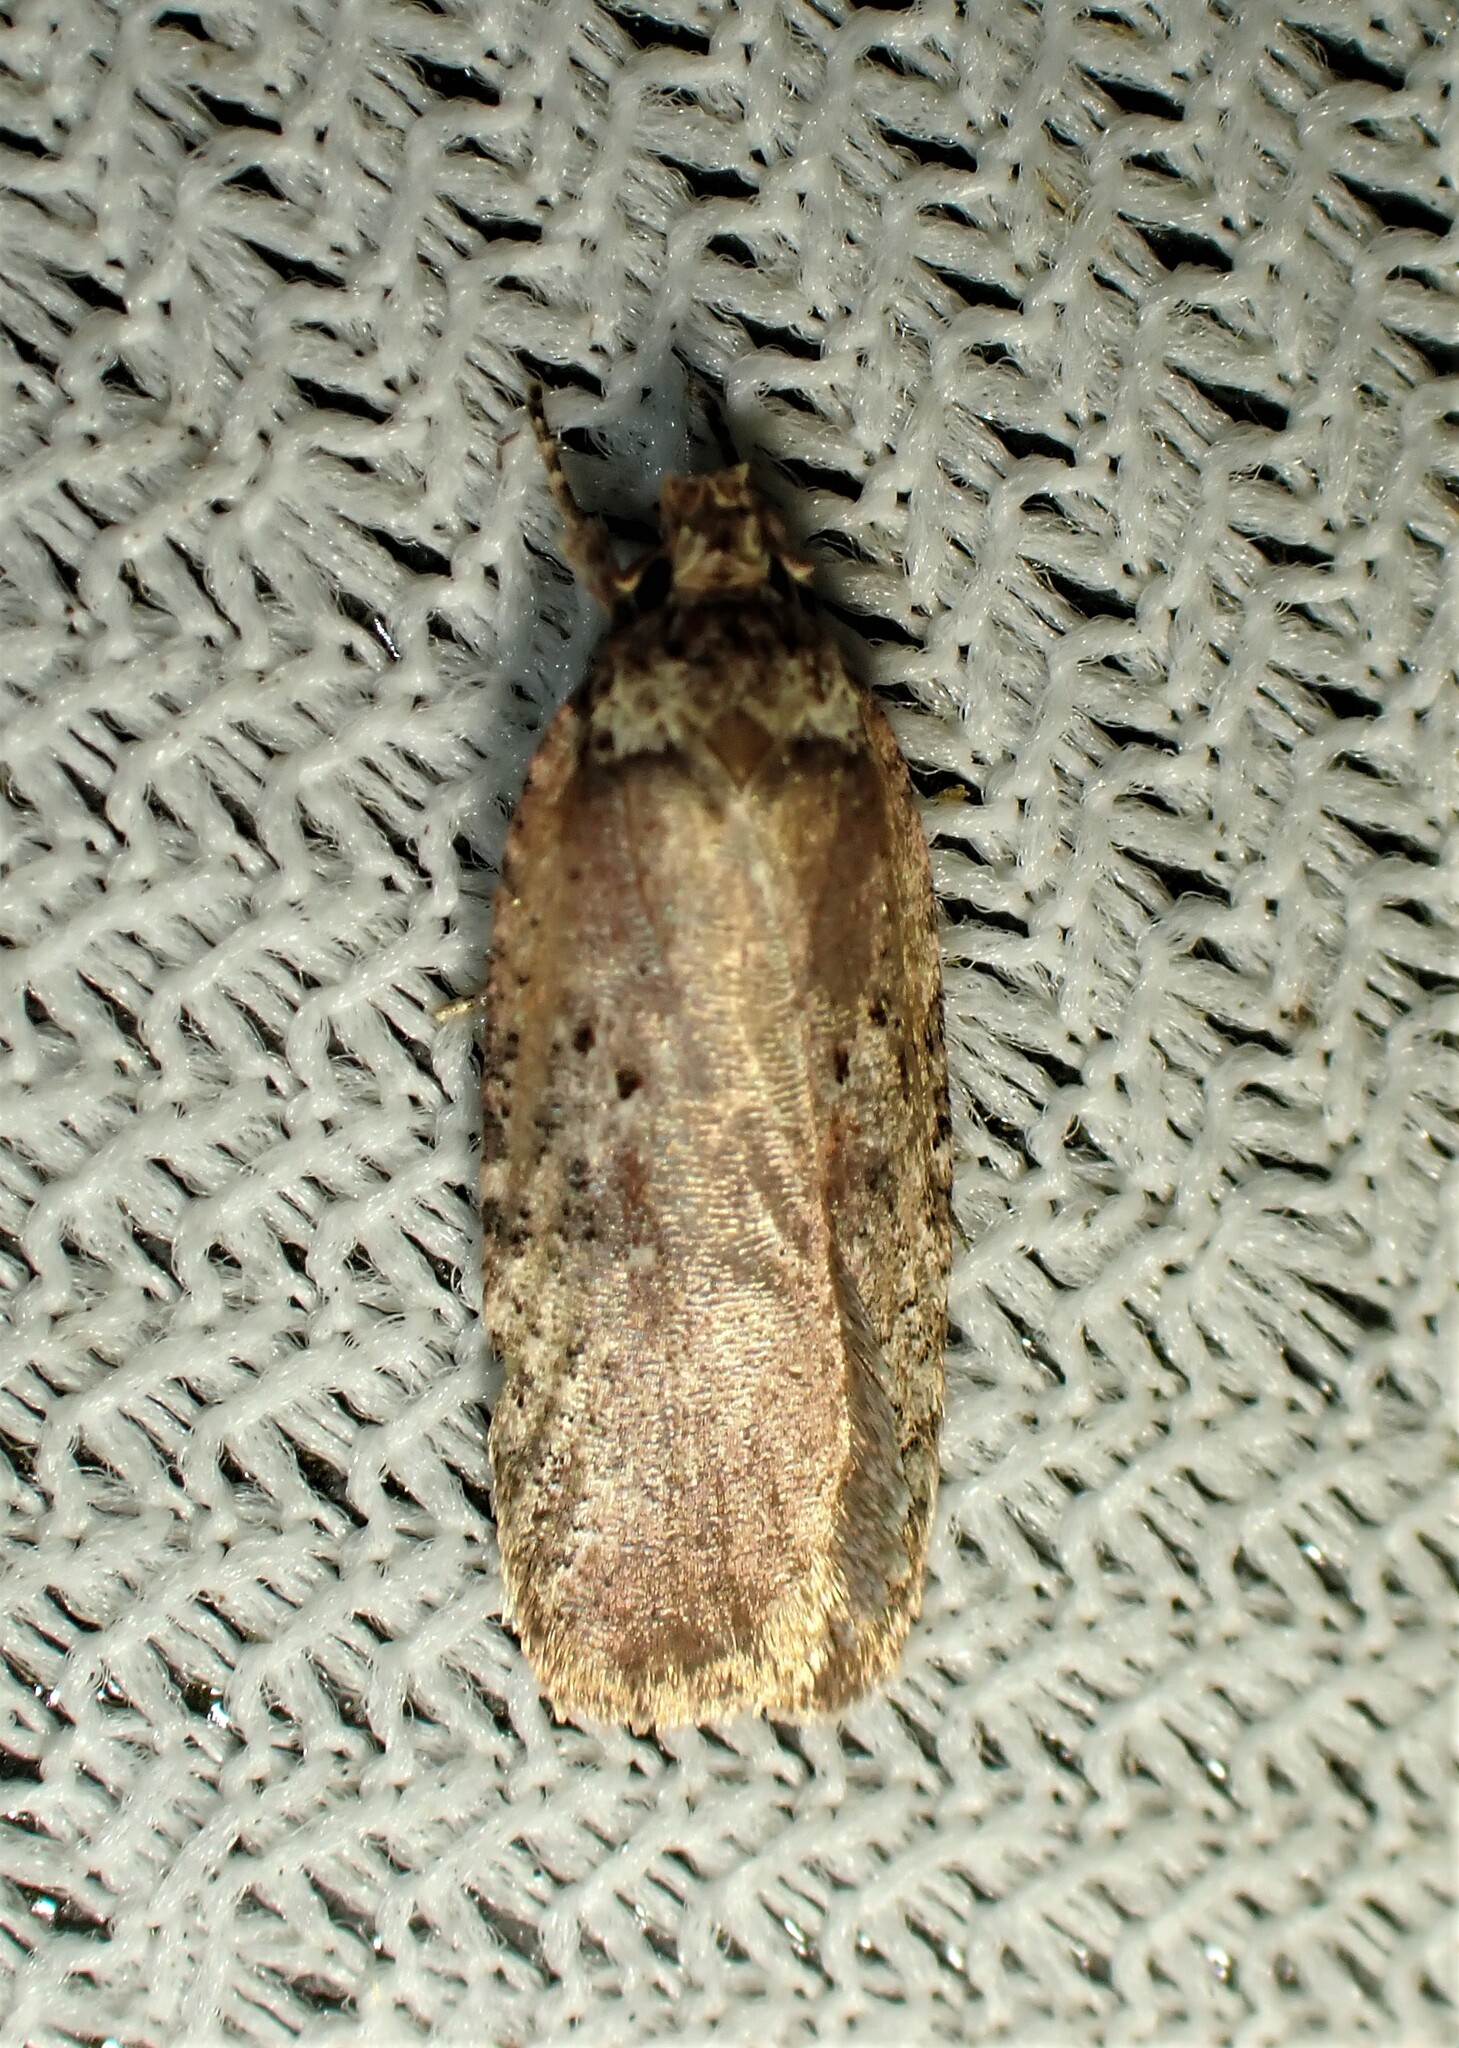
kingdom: Animalia
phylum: Arthropoda
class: Insecta
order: Lepidoptera
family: Depressariidae
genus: Agonopterix
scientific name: Agonopterix walsinghamella
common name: Walsingham's agonopterix moth
